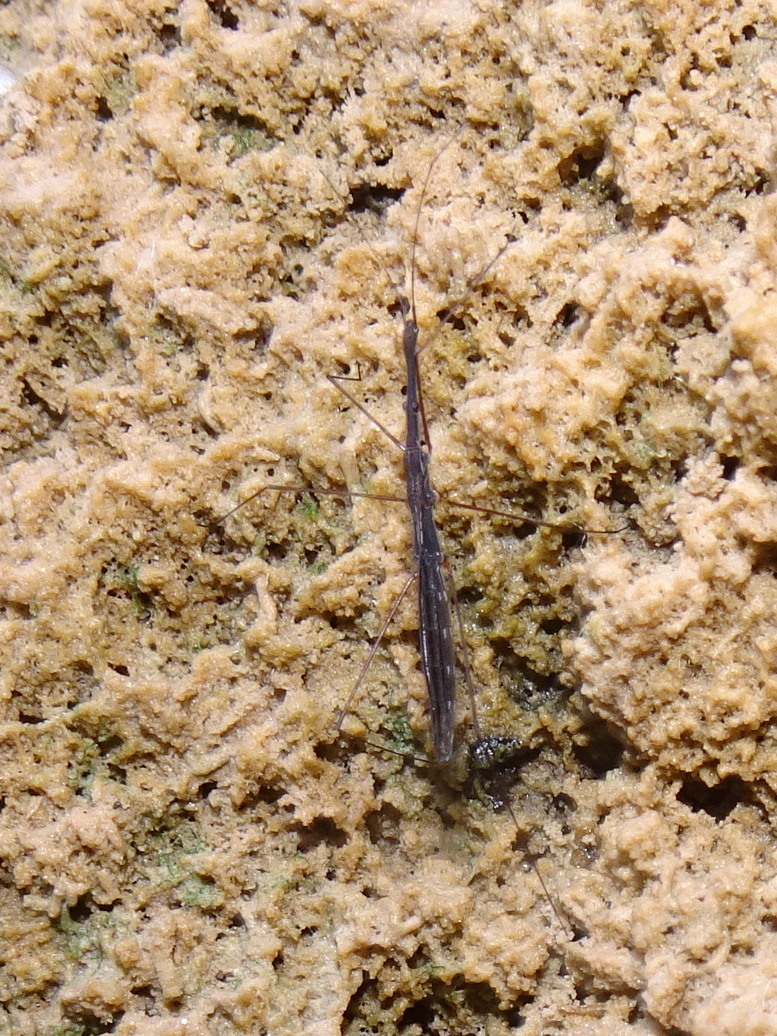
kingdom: Animalia
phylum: Arthropoda
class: Insecta
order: Hemiptera
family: Hydrometridae
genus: Hydrometra
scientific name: Hydrometra stagnorum
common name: Water measurer
